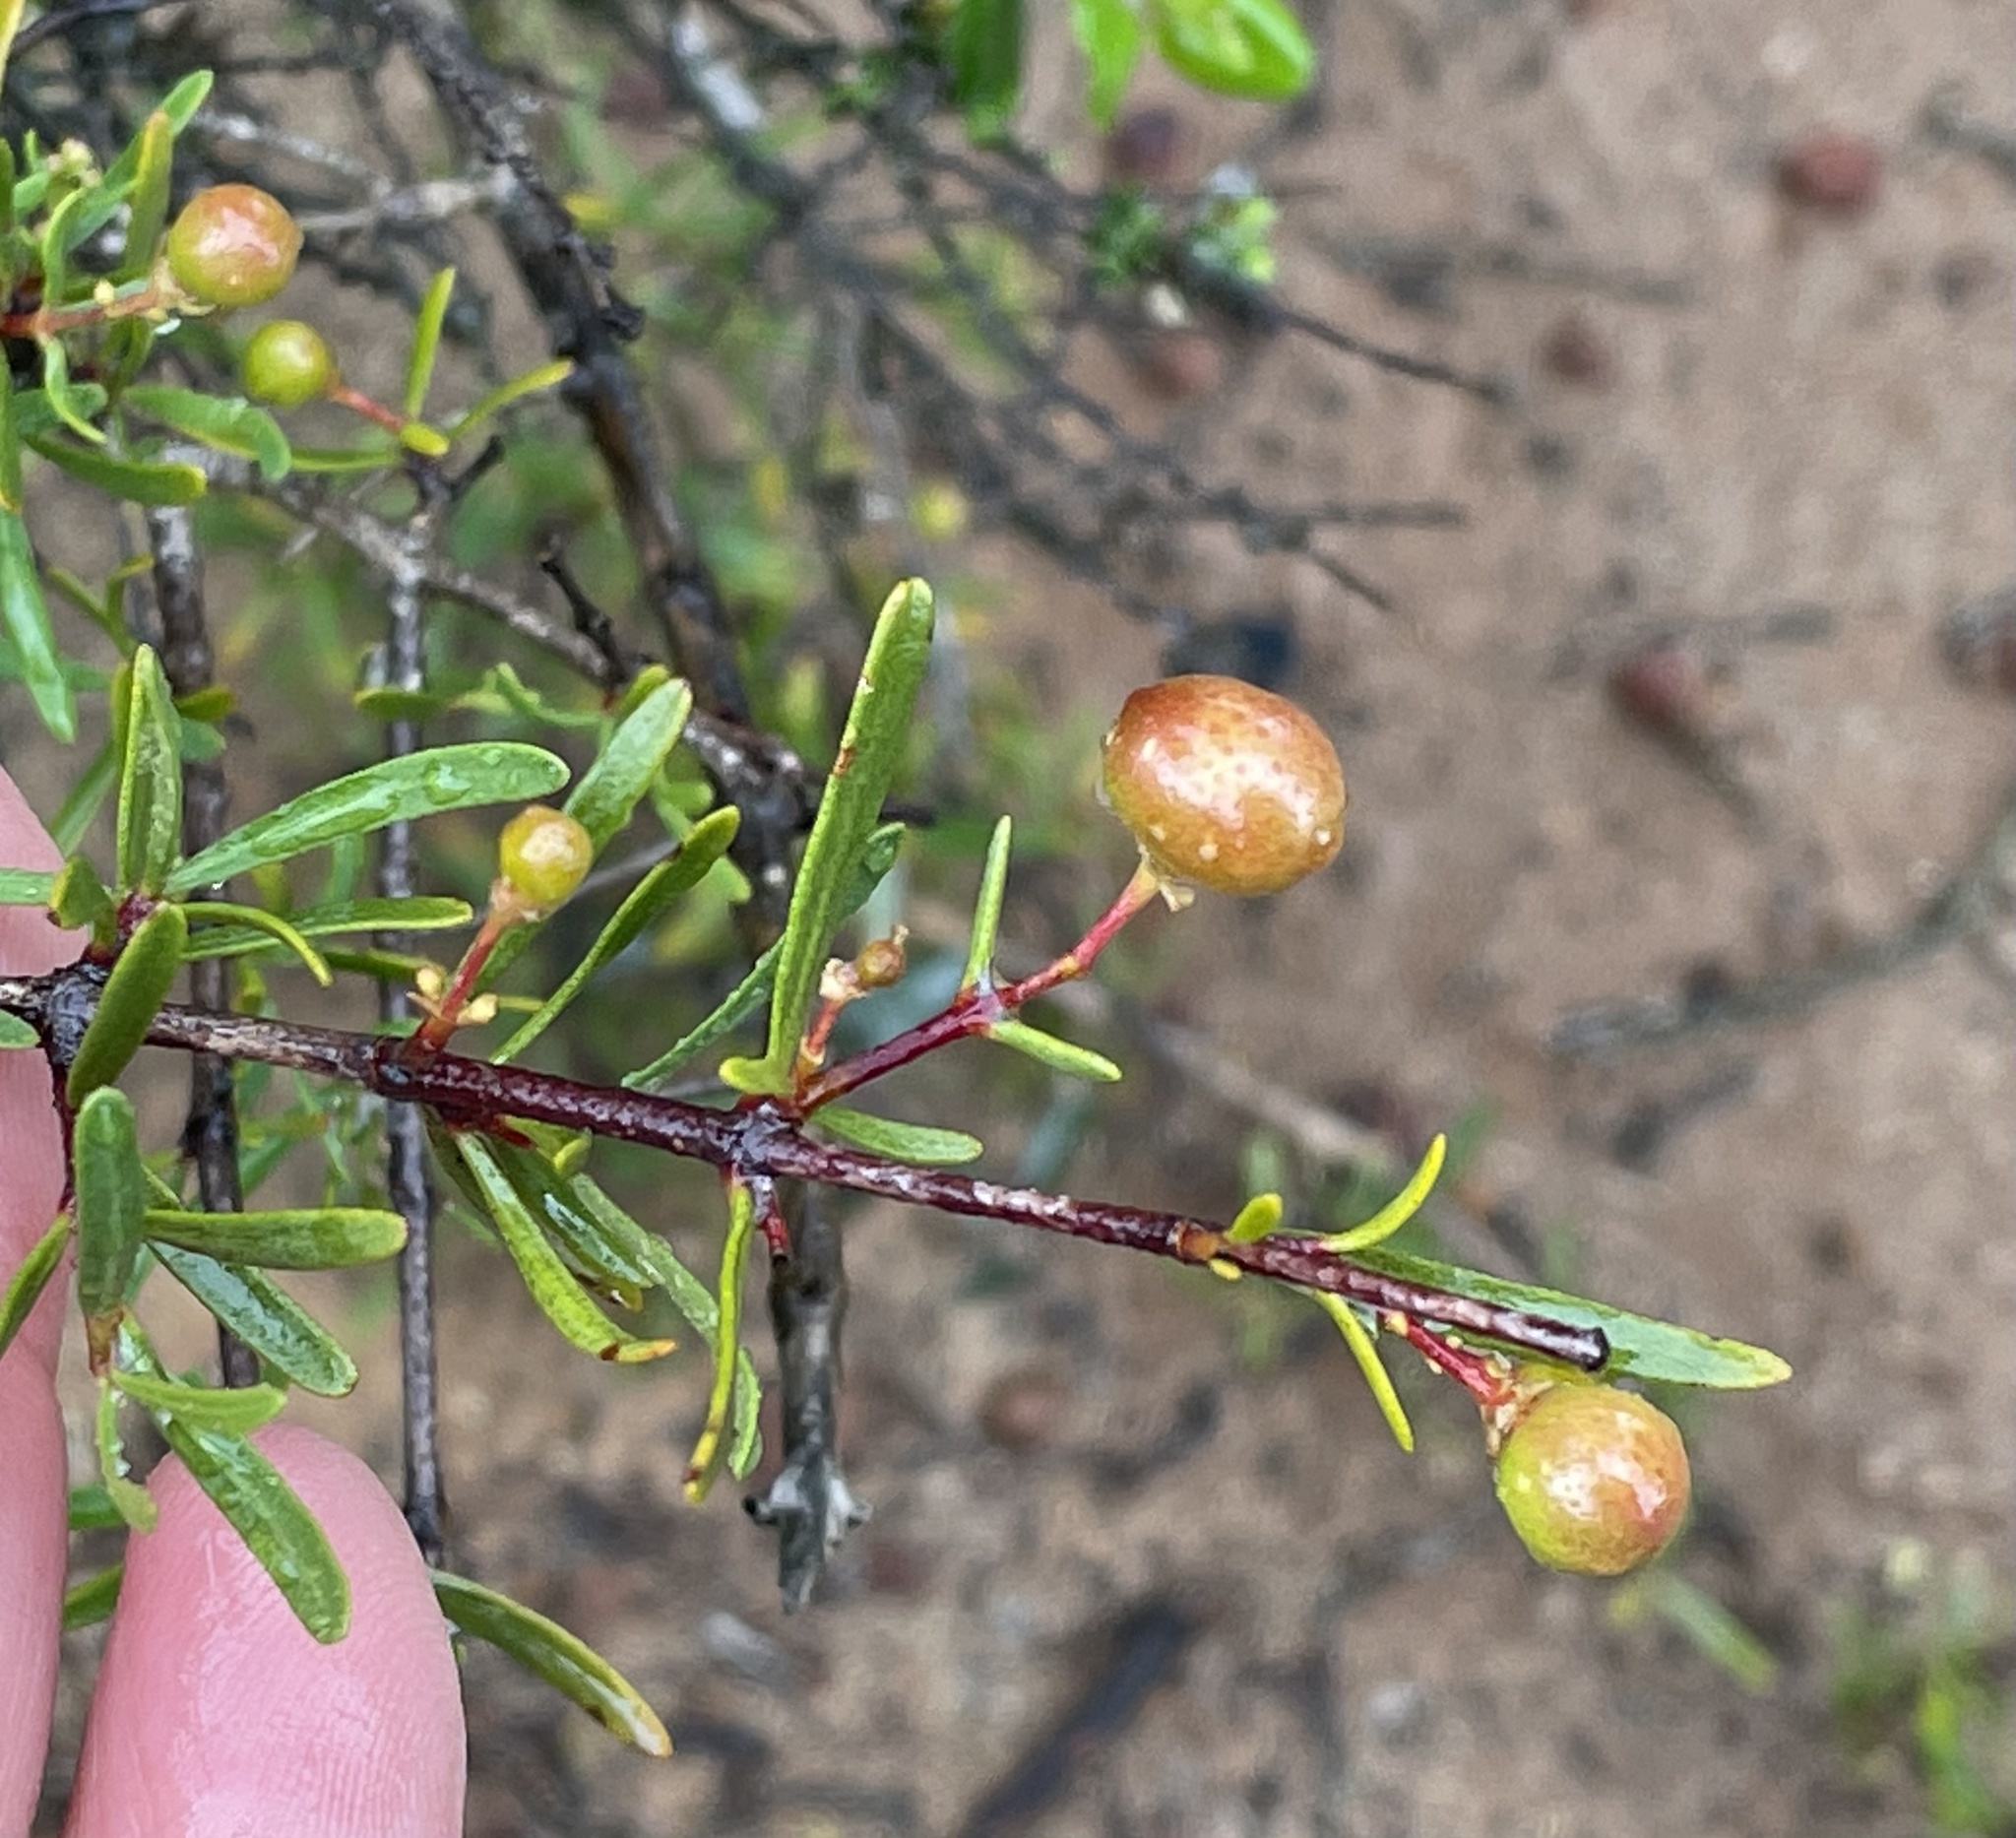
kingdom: Plantae
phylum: Tracheophyta
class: Magnoliopsida
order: Sapindales
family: Rutaceae
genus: Cneoridium
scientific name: Cneoridium dumosum
